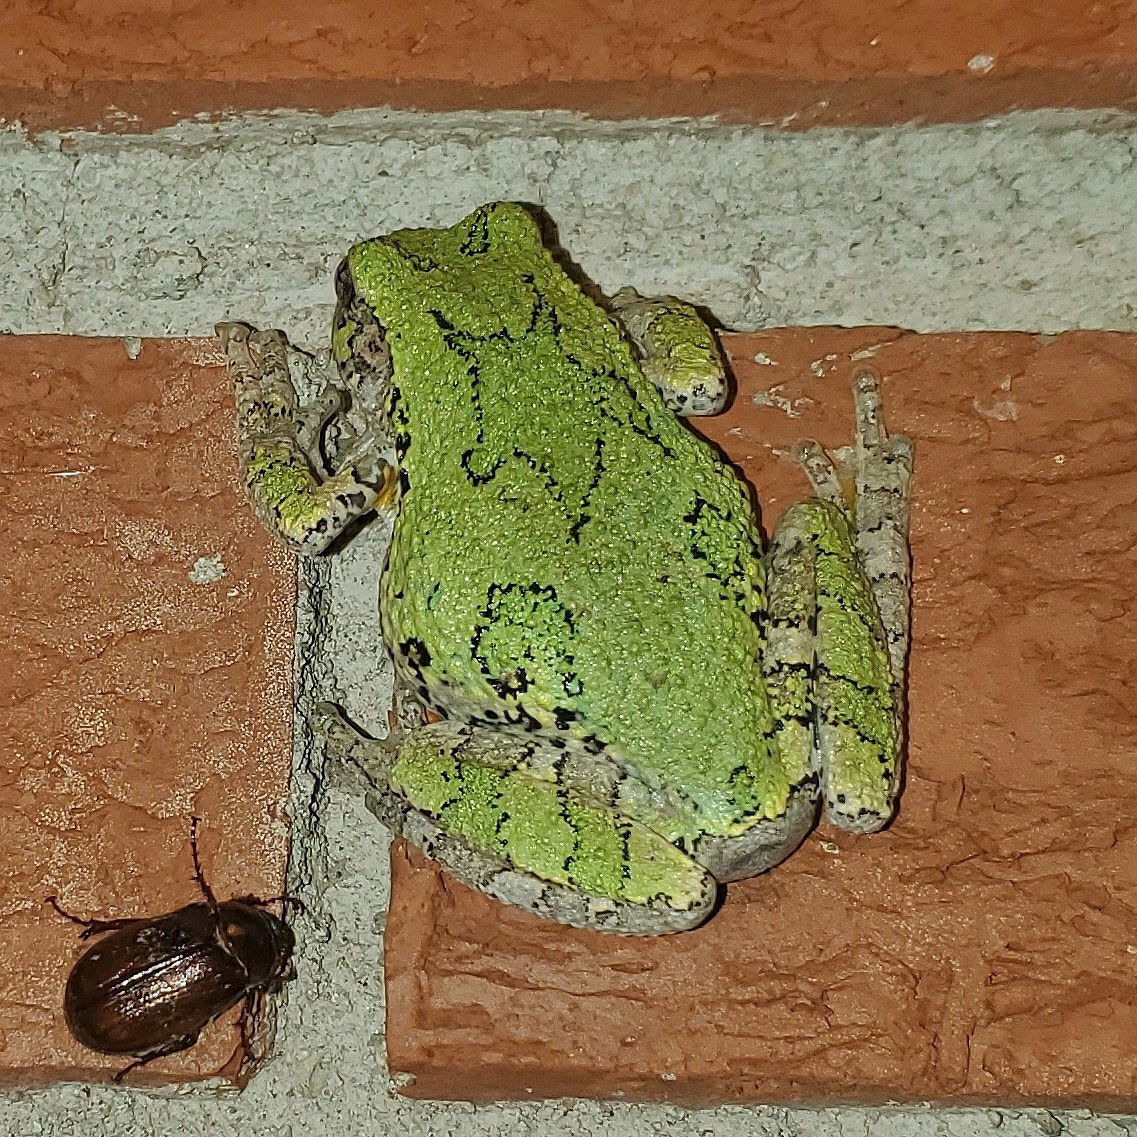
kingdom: Animalia
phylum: Chordata
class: Amphibia
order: Anura
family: Hylidae
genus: Hyla
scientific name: Hyla
